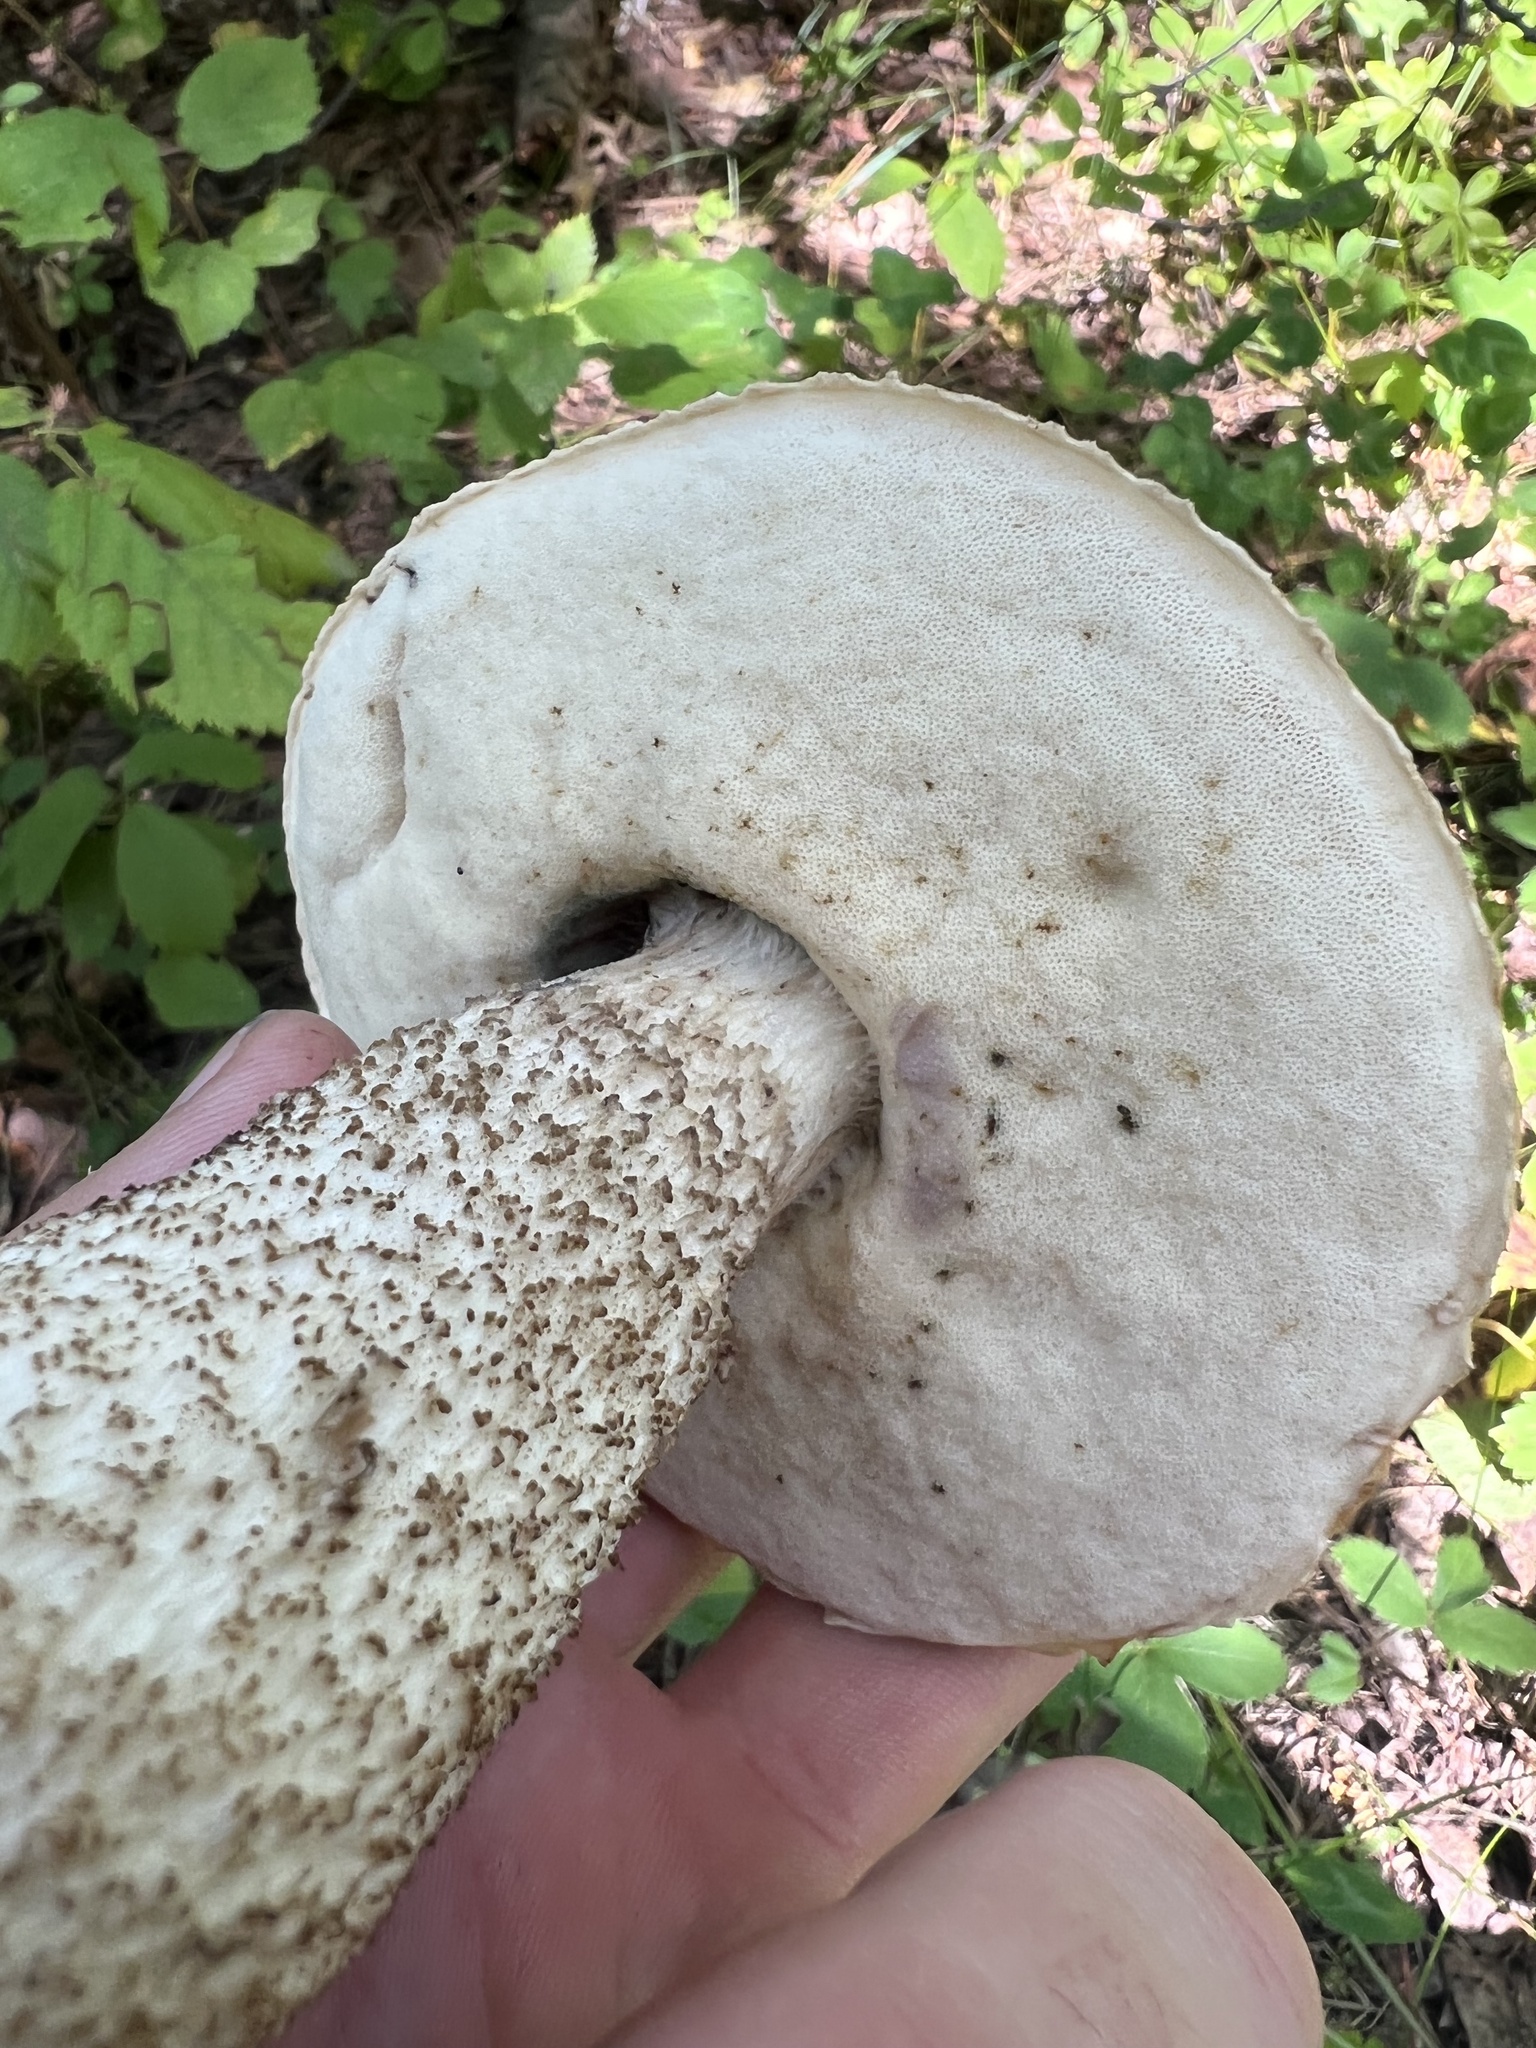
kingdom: Fungi
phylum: Basidiomycota
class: Agaricomycetes
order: Boletales
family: Boletaceae
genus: Leccinum
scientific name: Leccinum insigne
